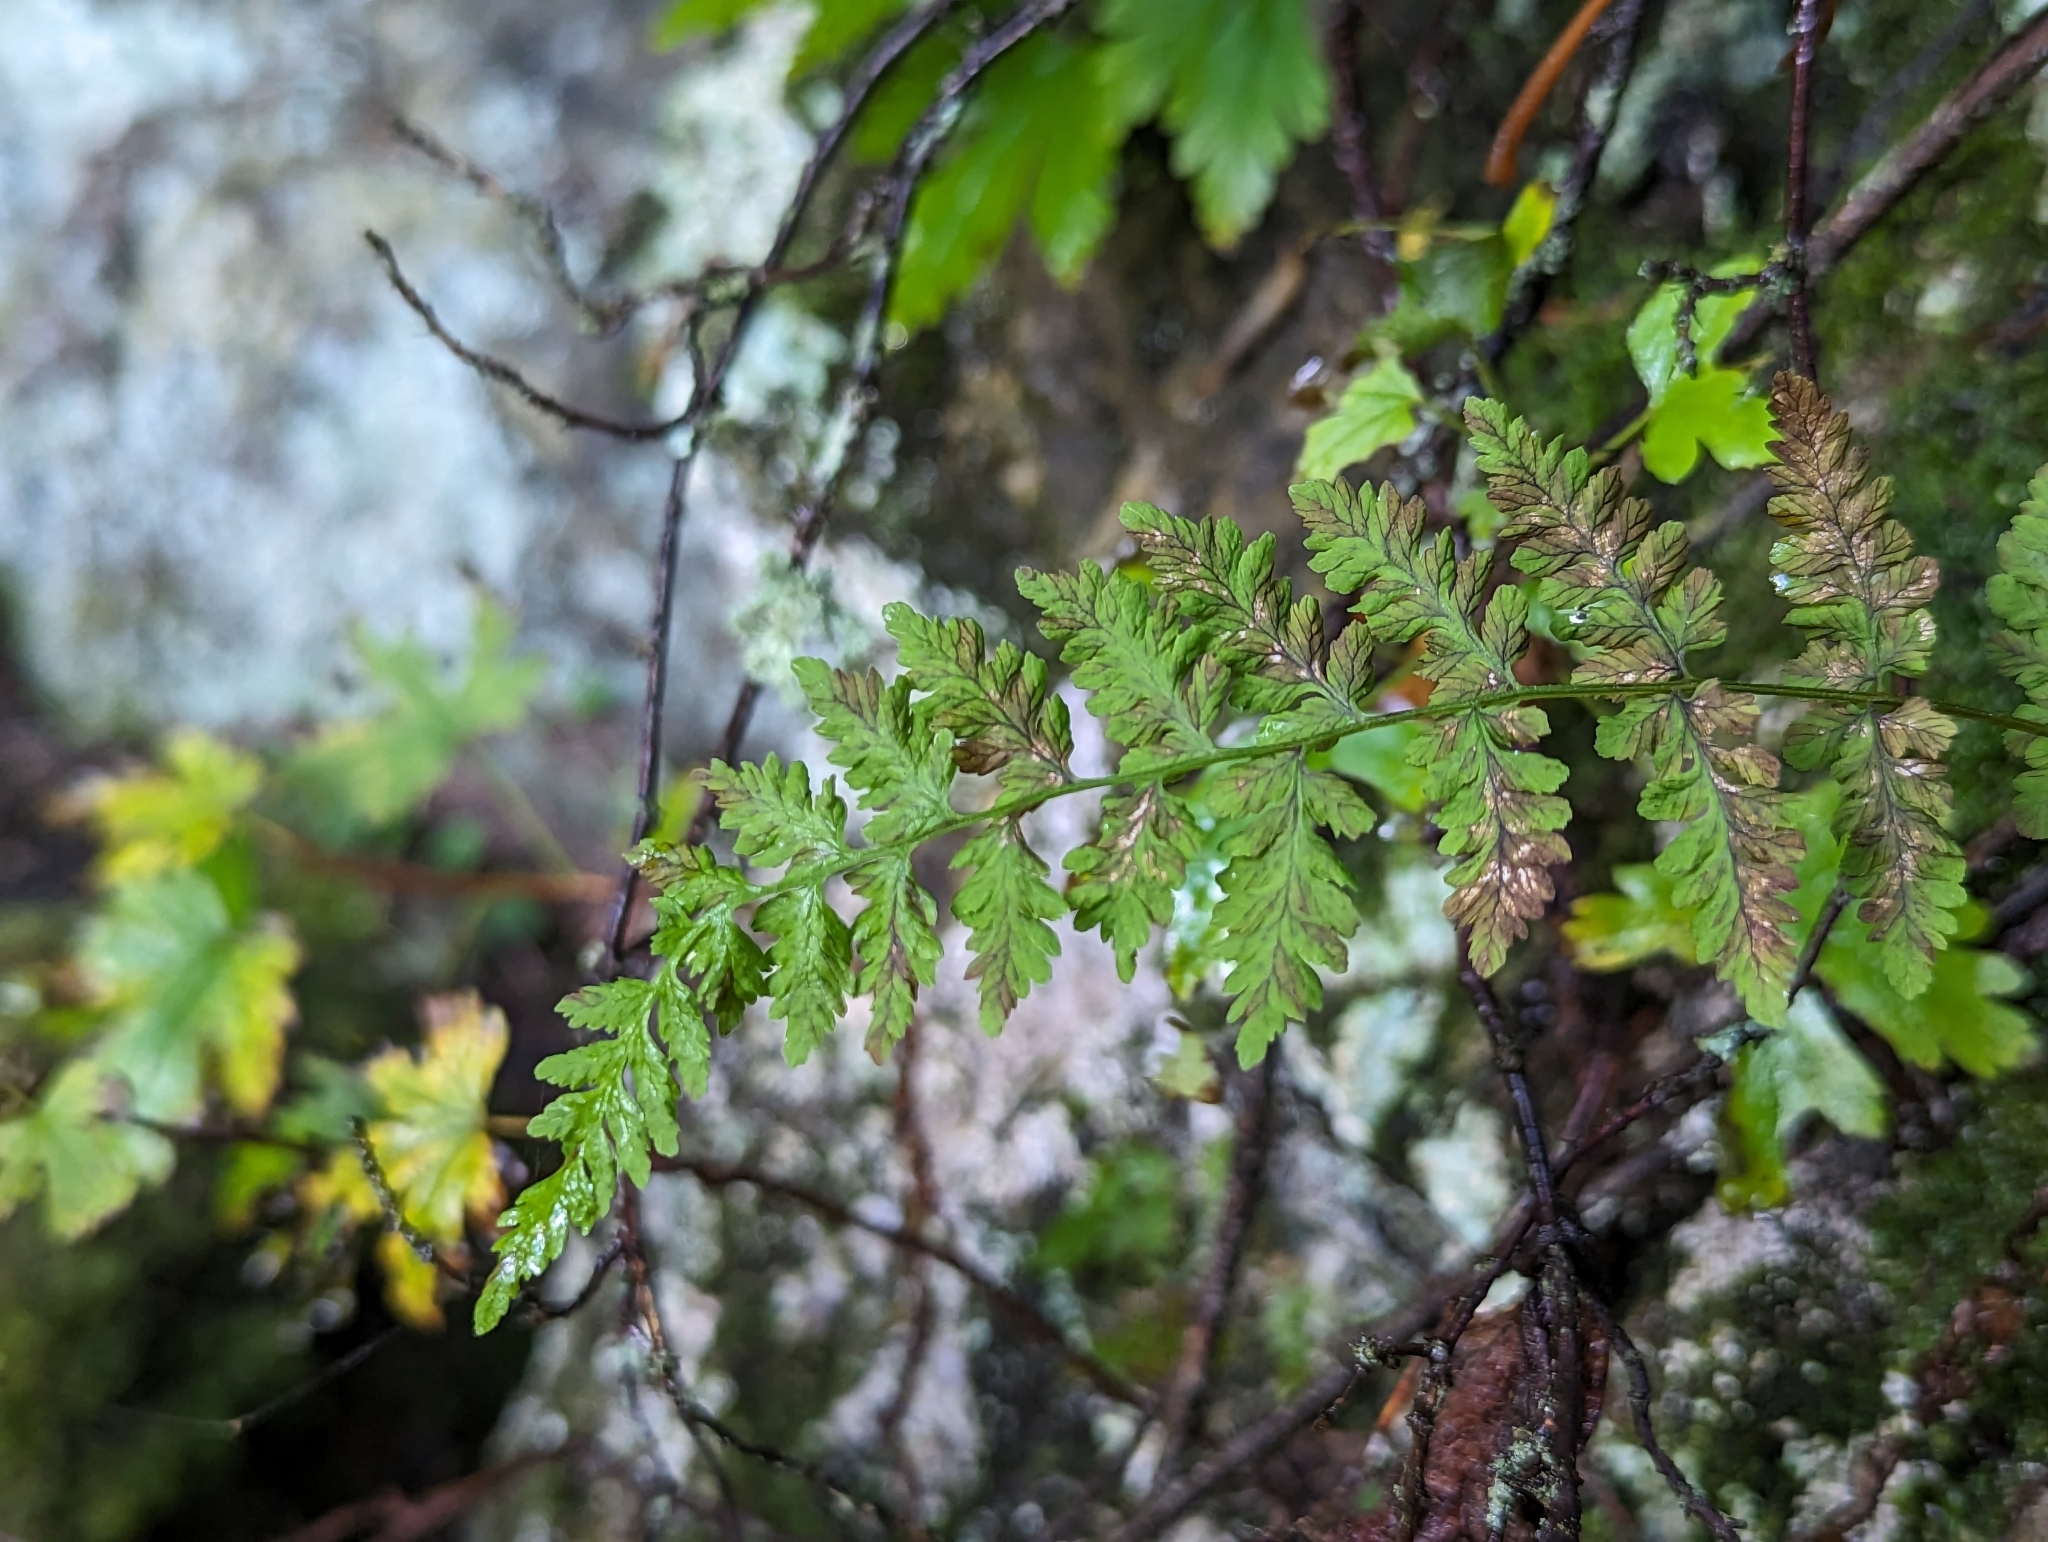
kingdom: Plantae
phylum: Tracheophyta
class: Polypodiopsida
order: Polypodiales
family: Cystopteridaceae
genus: Cystopteris
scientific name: Cystopteris laurentiana
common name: Blasdell's laurentian bladder fern
